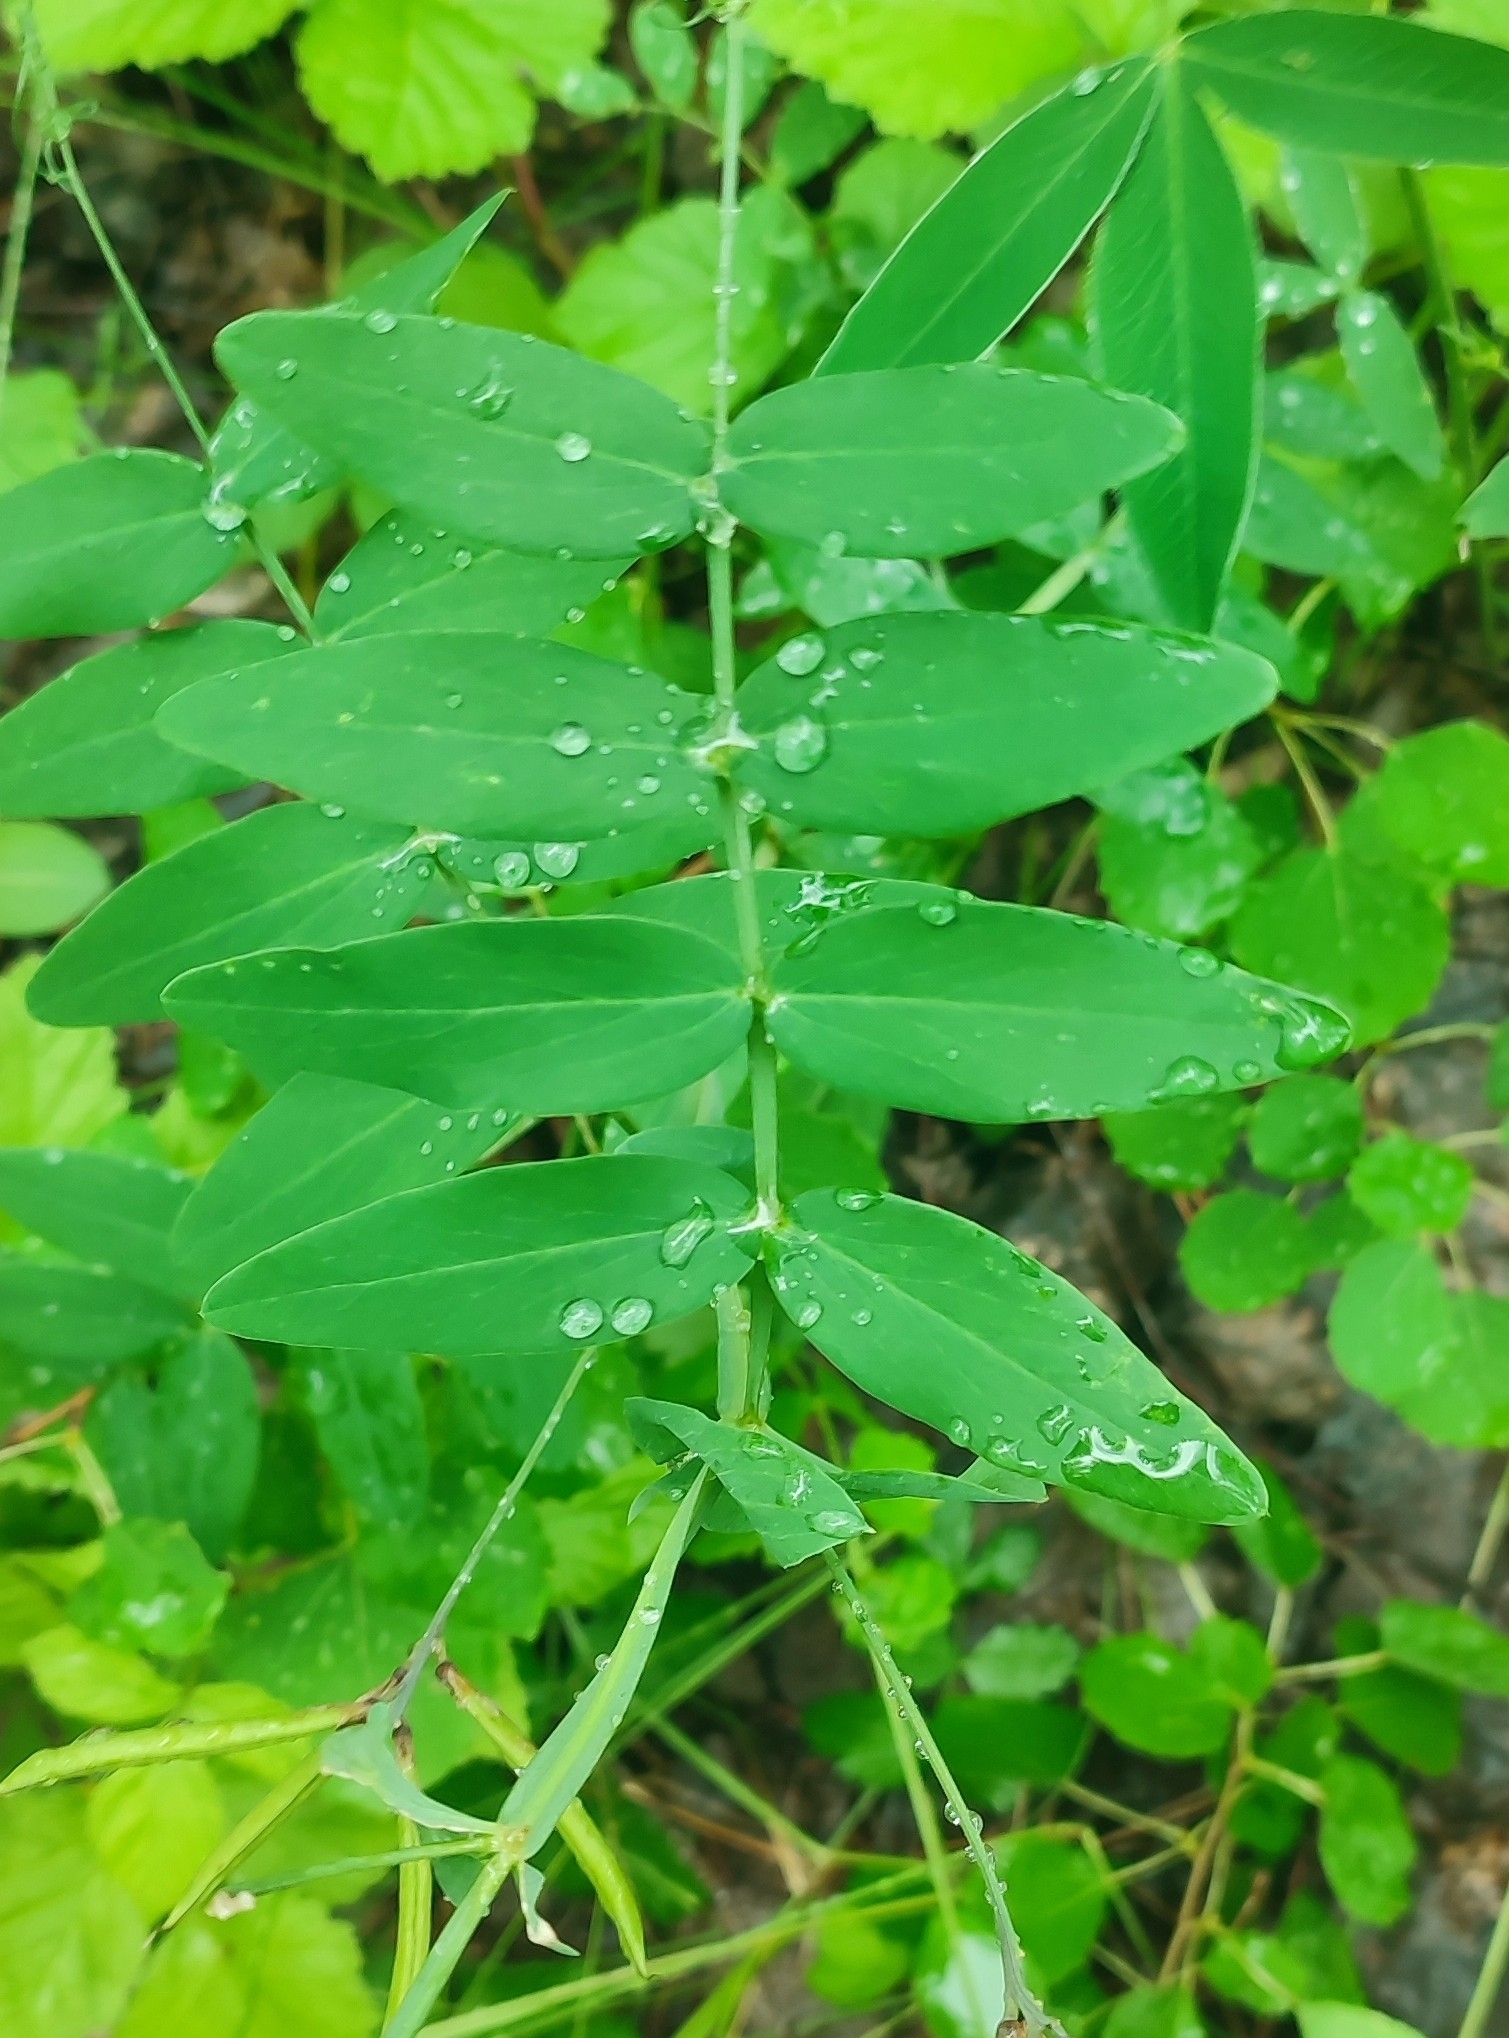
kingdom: Plantae
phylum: Tracheophyta
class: Magnoliopsida
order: Fabales
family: Fabaceae
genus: Lathyrus
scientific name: Lathyrus pisiformis
